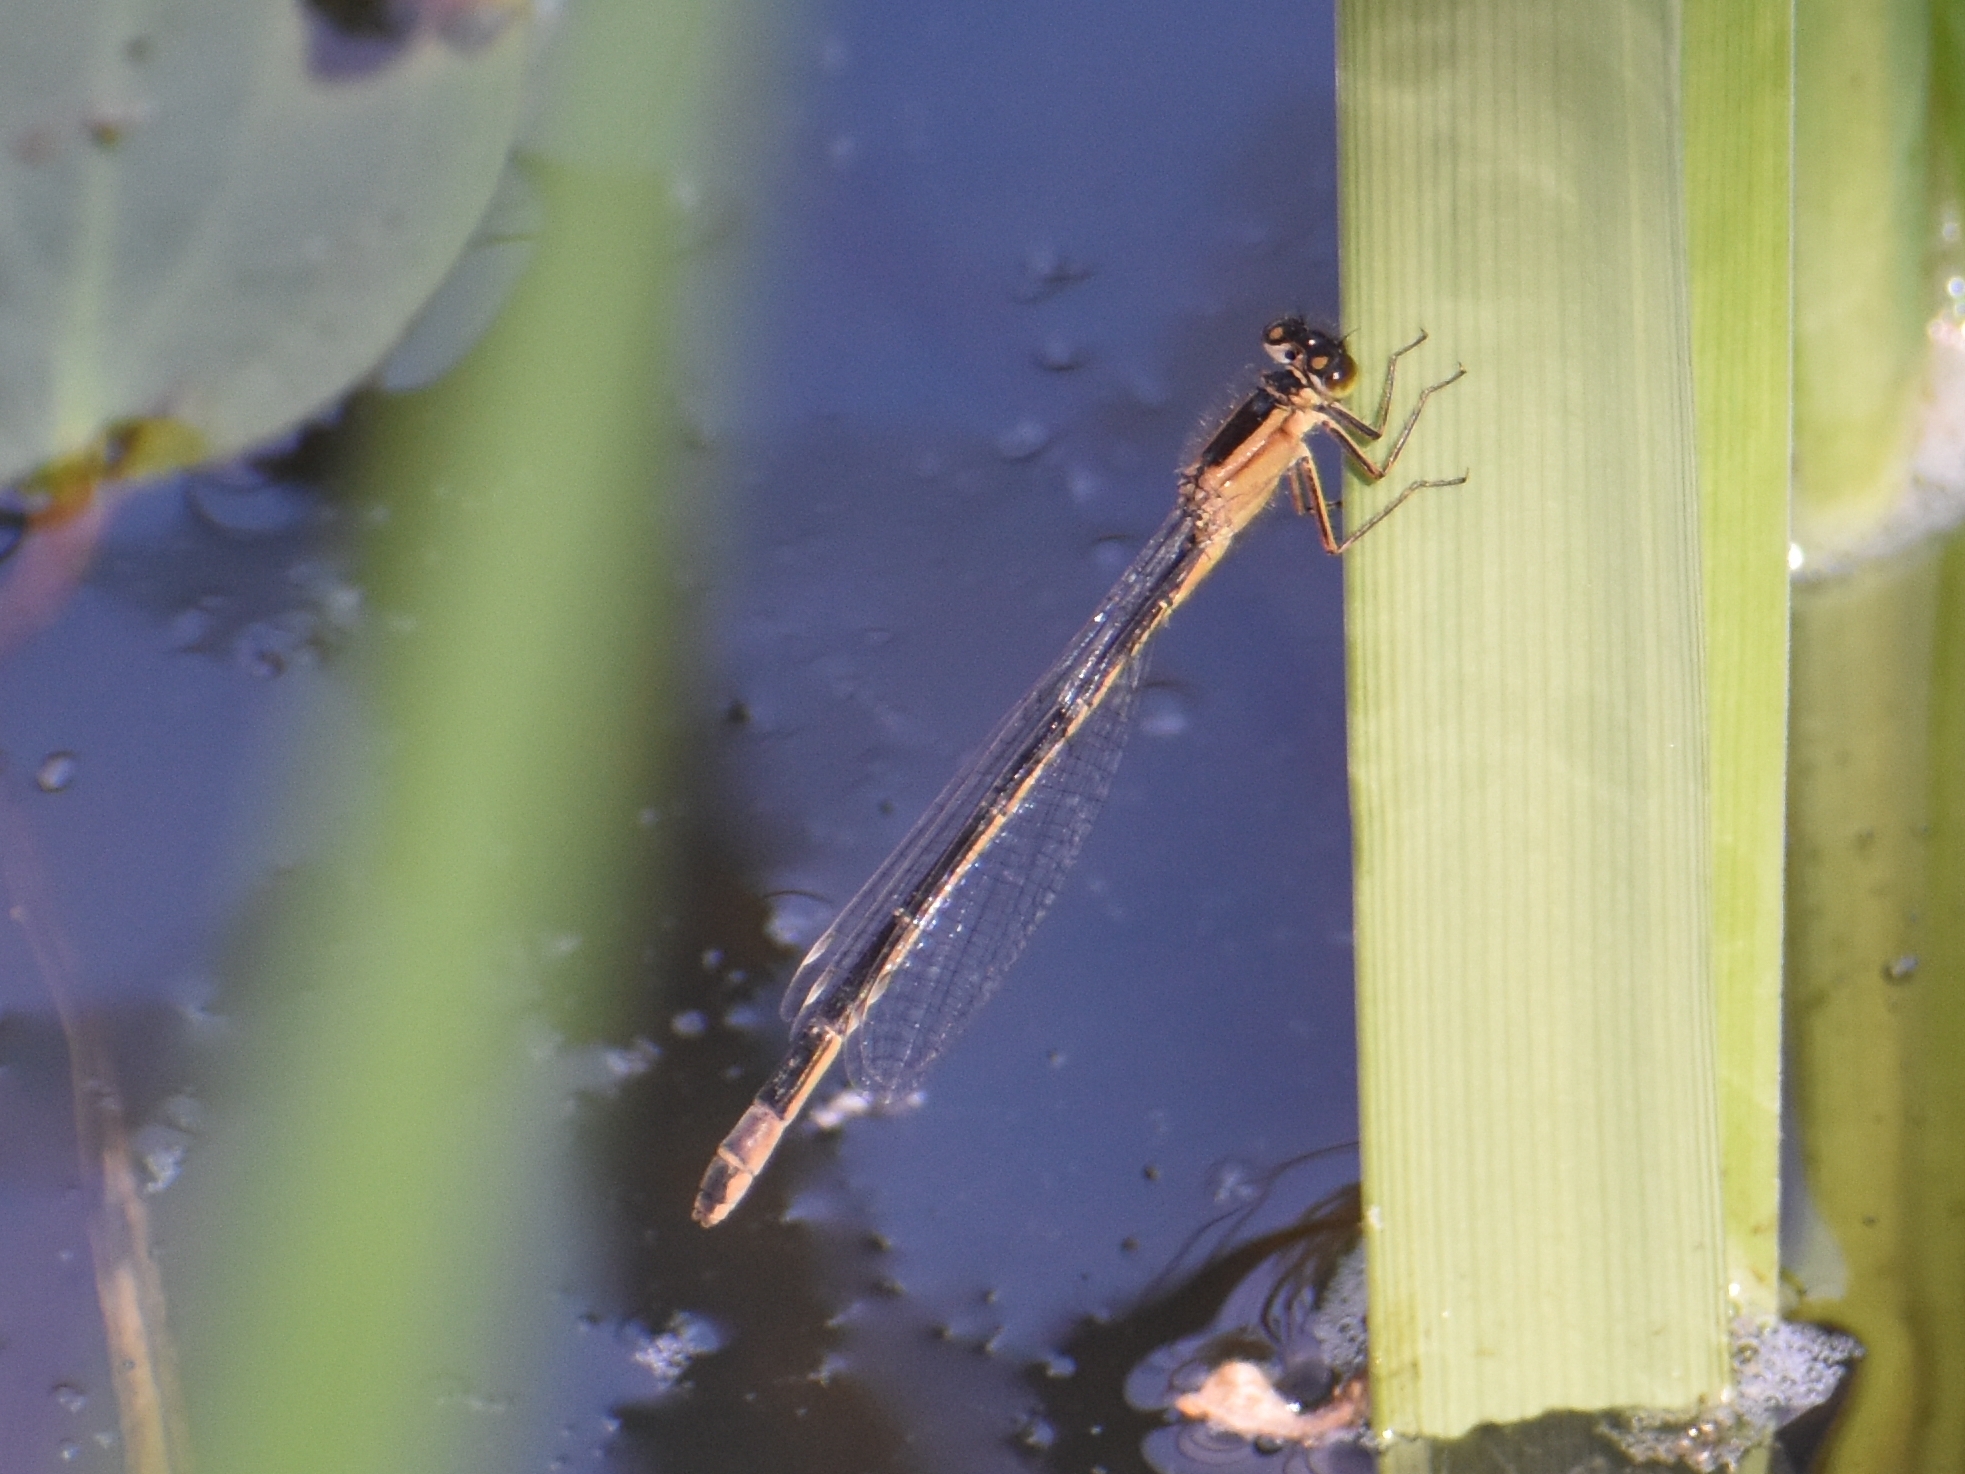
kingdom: Animalia
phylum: Arthropoda
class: Insecta
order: Odonata
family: Coenagrionidae
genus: Ischnura
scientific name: Ischnura elegans
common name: Blue-tailed damselfly
